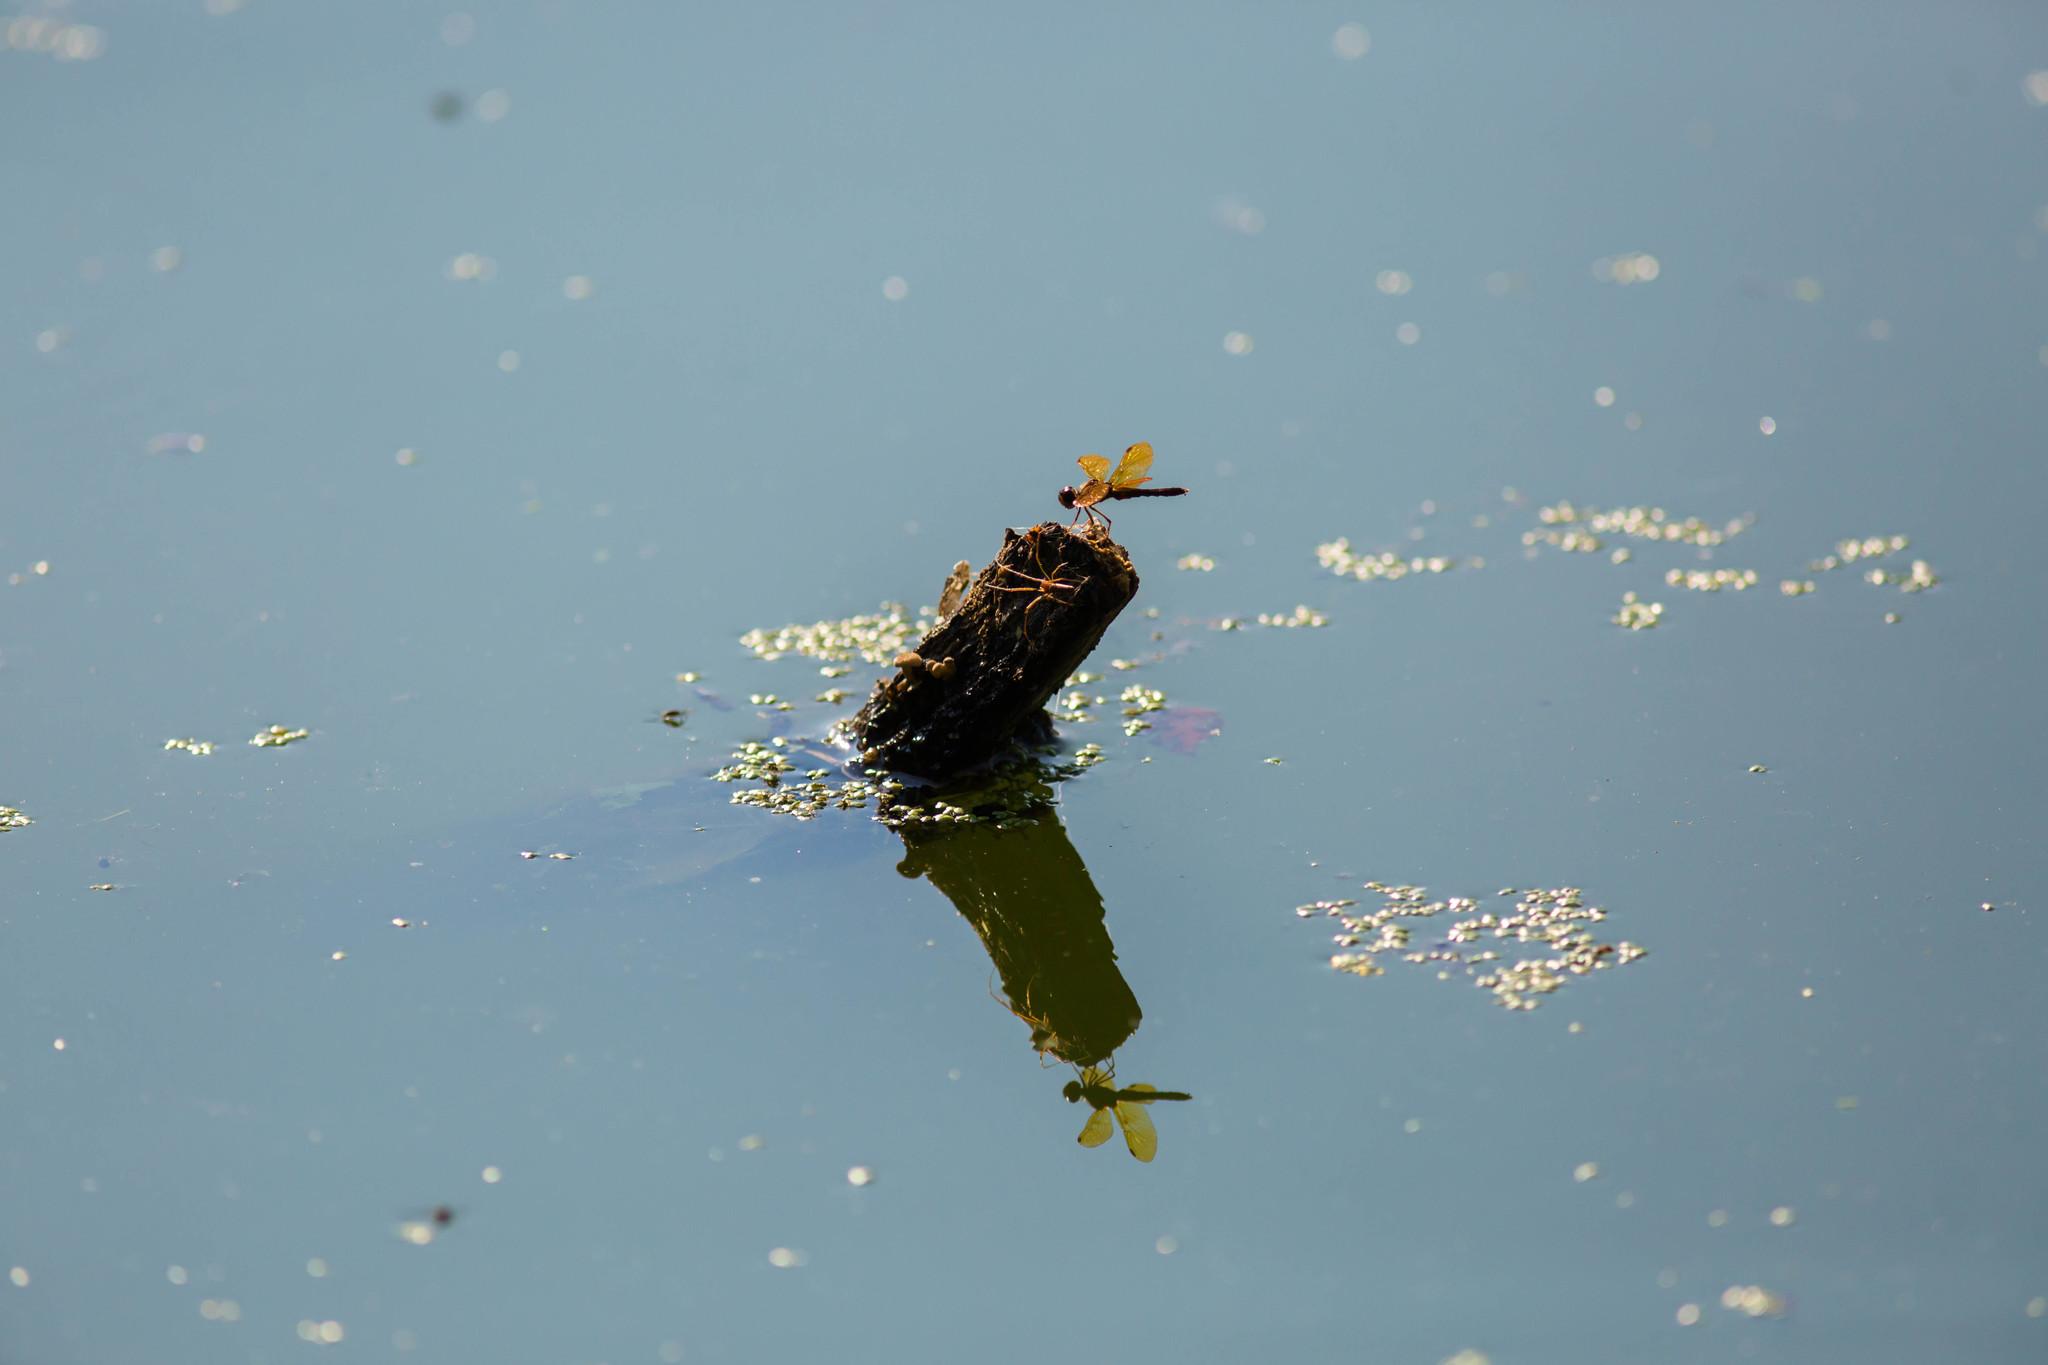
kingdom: Animalia
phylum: Arthropoda
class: Insecta
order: Odonata
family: Libellulidae
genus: Perithemis
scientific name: Perithemis tenera
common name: Eastern amberwing
